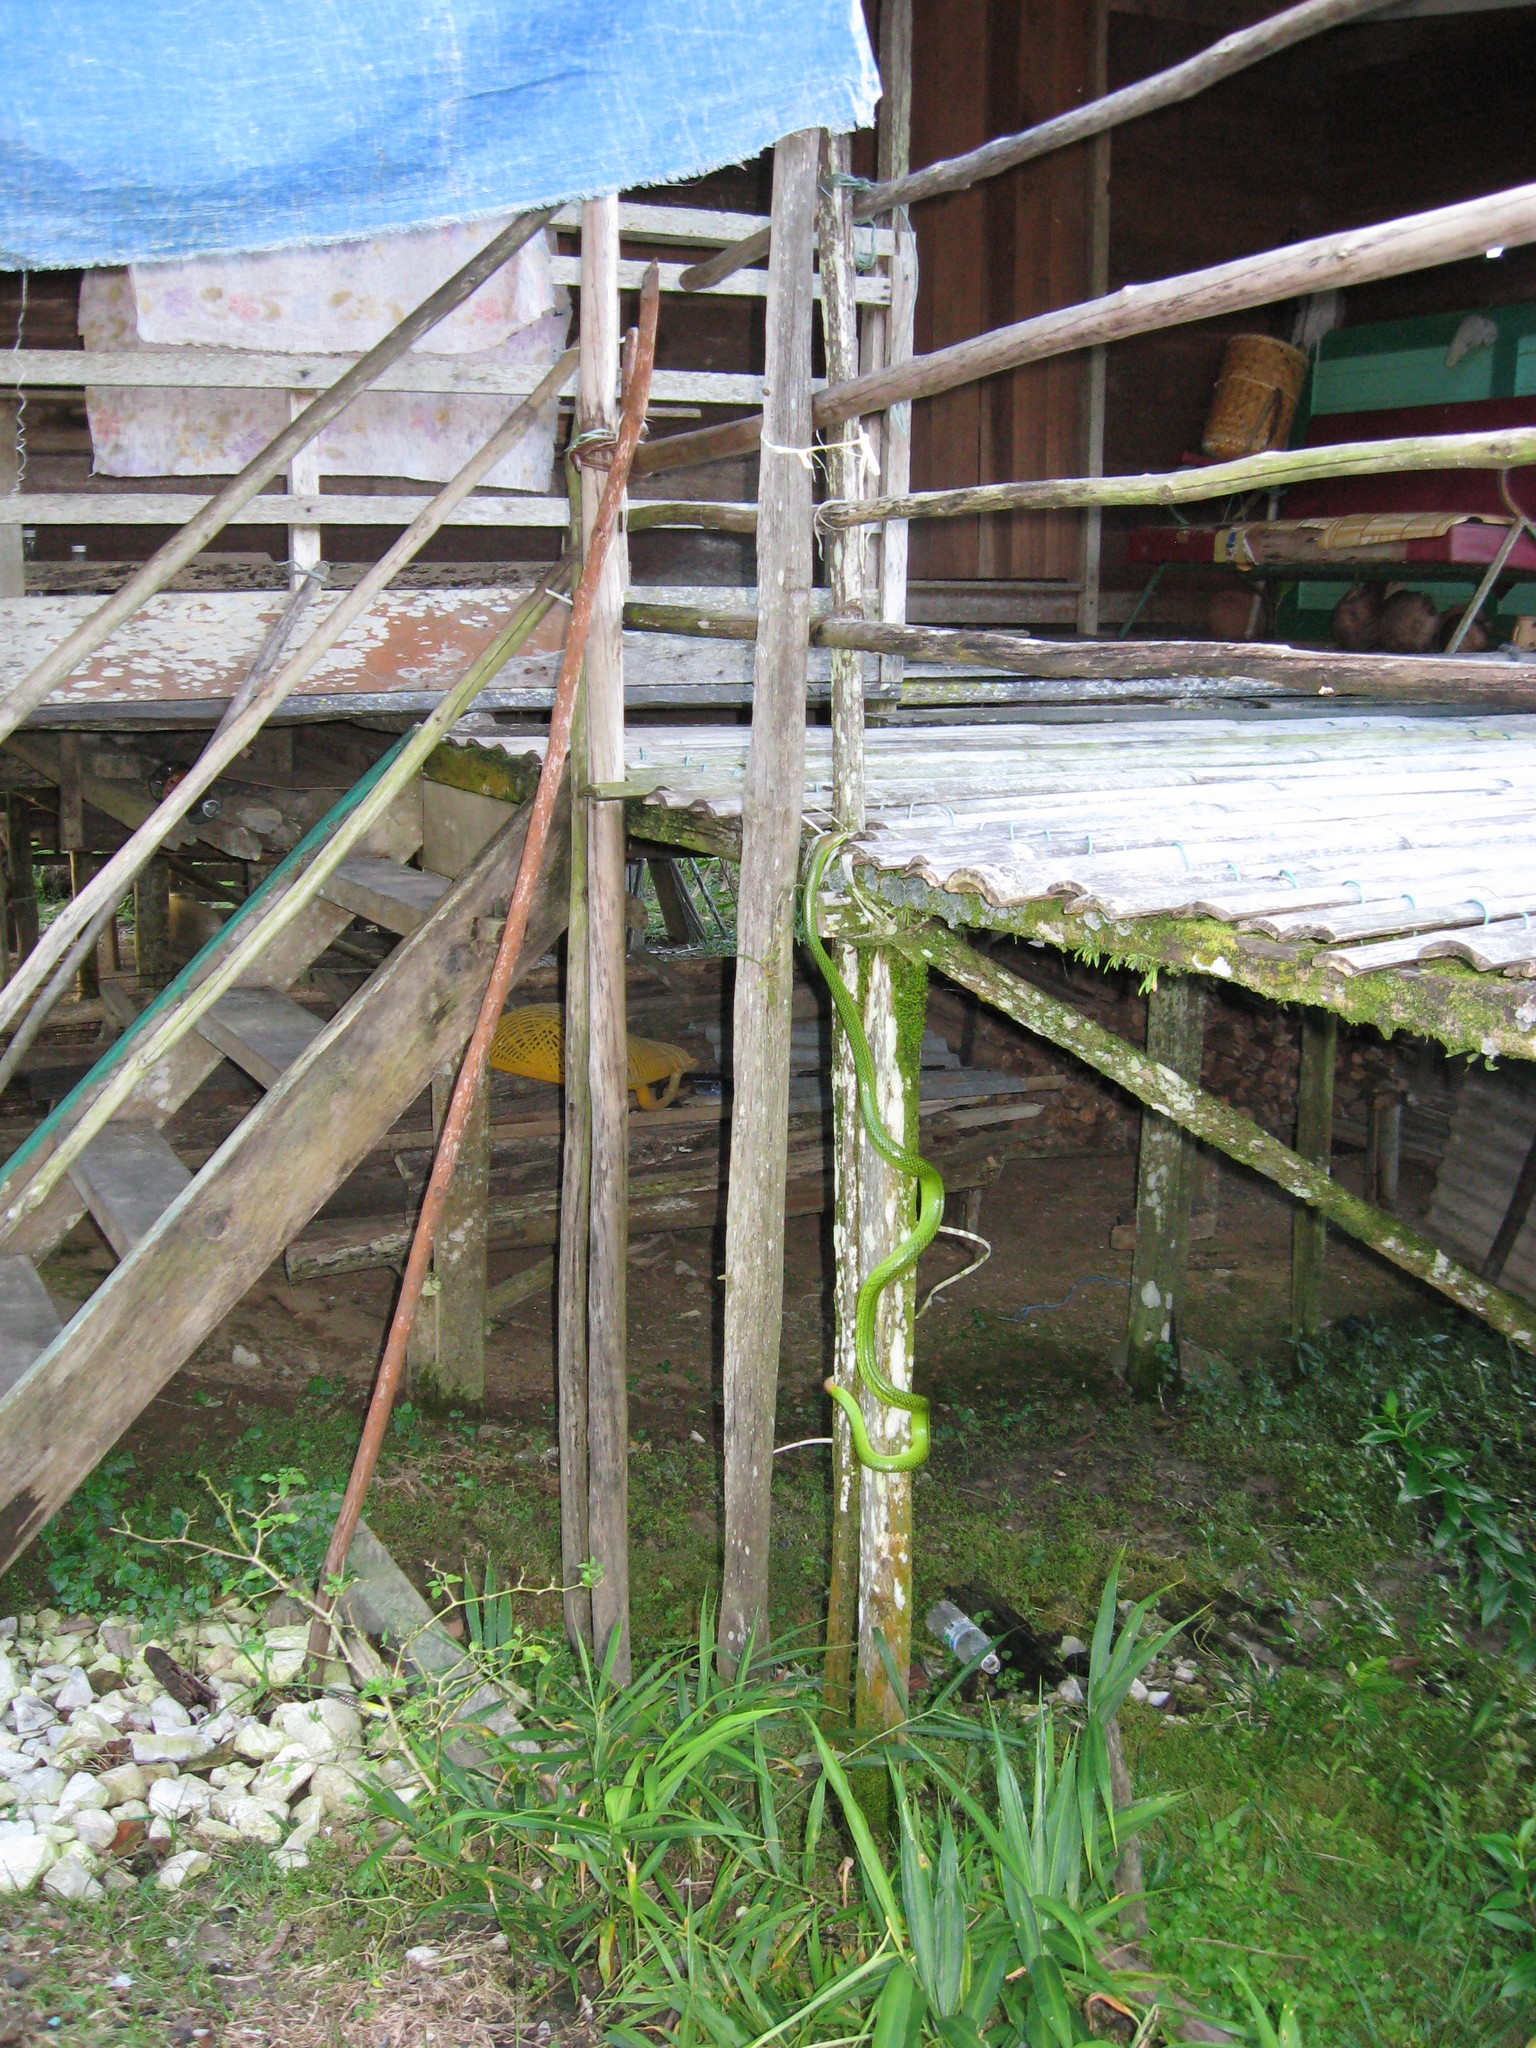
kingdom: Animalia
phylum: Chordata
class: Squamata
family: Colubridae
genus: Gonyosoma
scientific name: Gonyosoma oxycephalum
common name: Red-tailed racer
